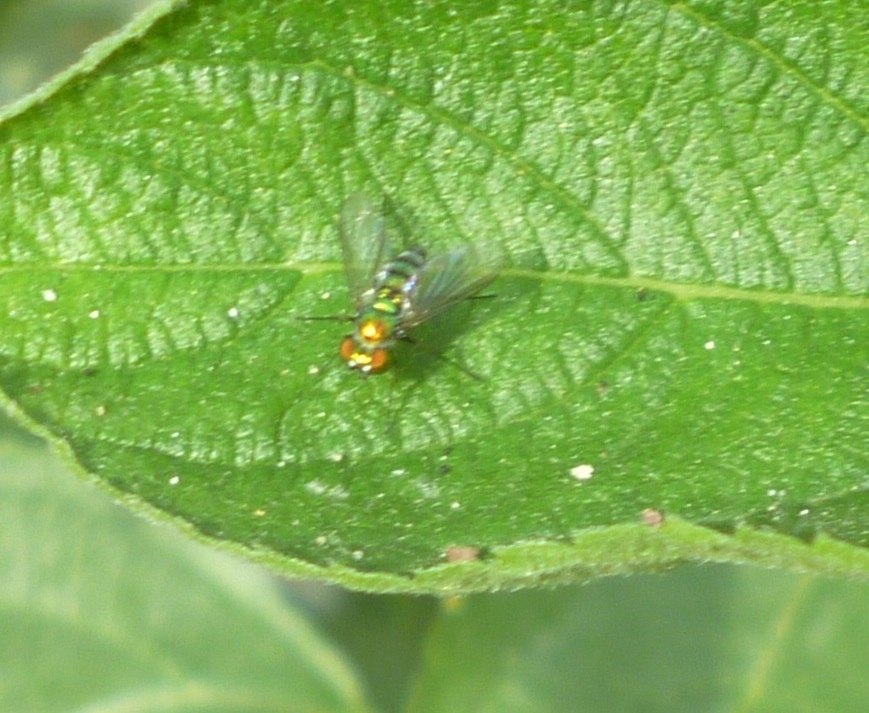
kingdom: Animalia
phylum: Arthropoda
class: Insecta
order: Diptera
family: Dolichopodidae
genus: Condylostylus
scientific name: Condylostylus longicornis
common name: Long-legged fly
